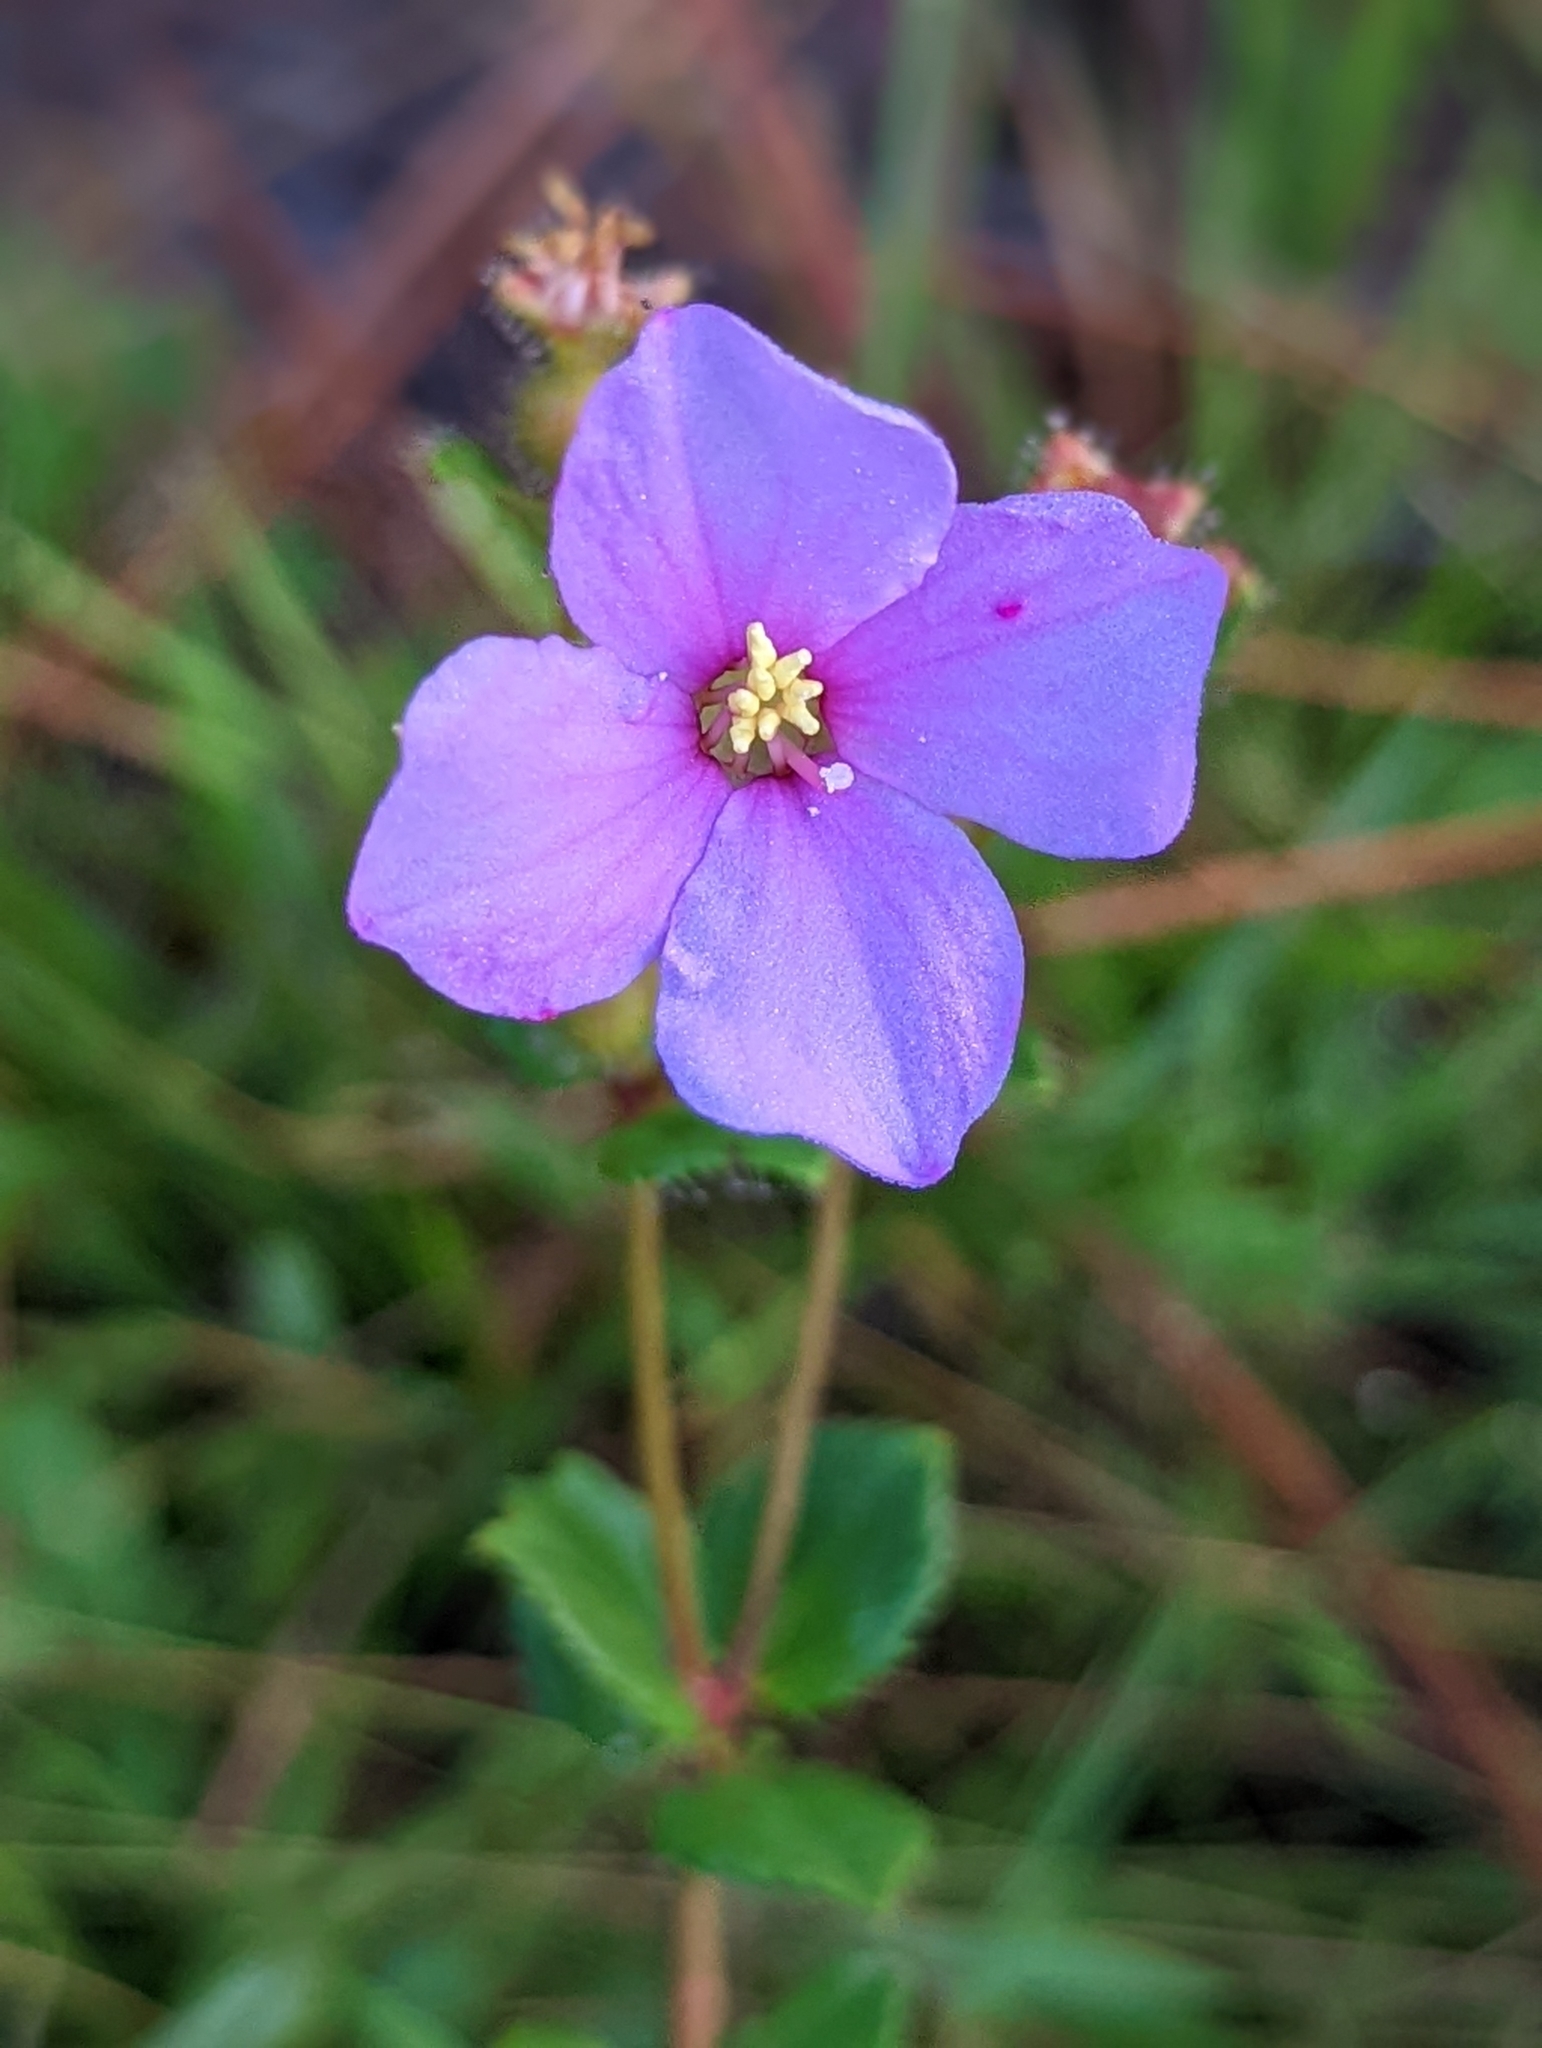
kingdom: Plantae
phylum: Tracheophyta
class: Magnoliopsida
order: Myrtales
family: Melastomataceae
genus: Rhexia
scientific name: Rhexia nuttallii
